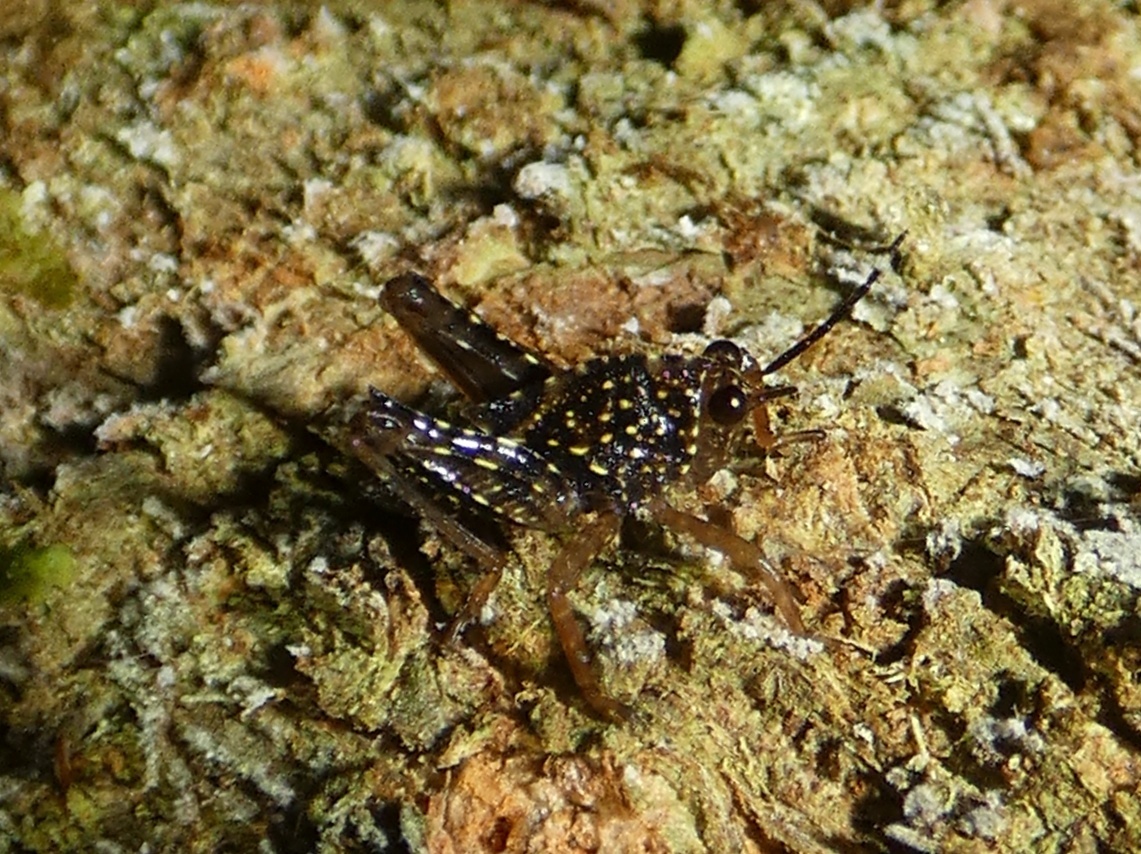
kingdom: Animalia
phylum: Arthropoda
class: Insecta
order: Orthoptera
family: Tetrigidae
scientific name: Tetrigidae
